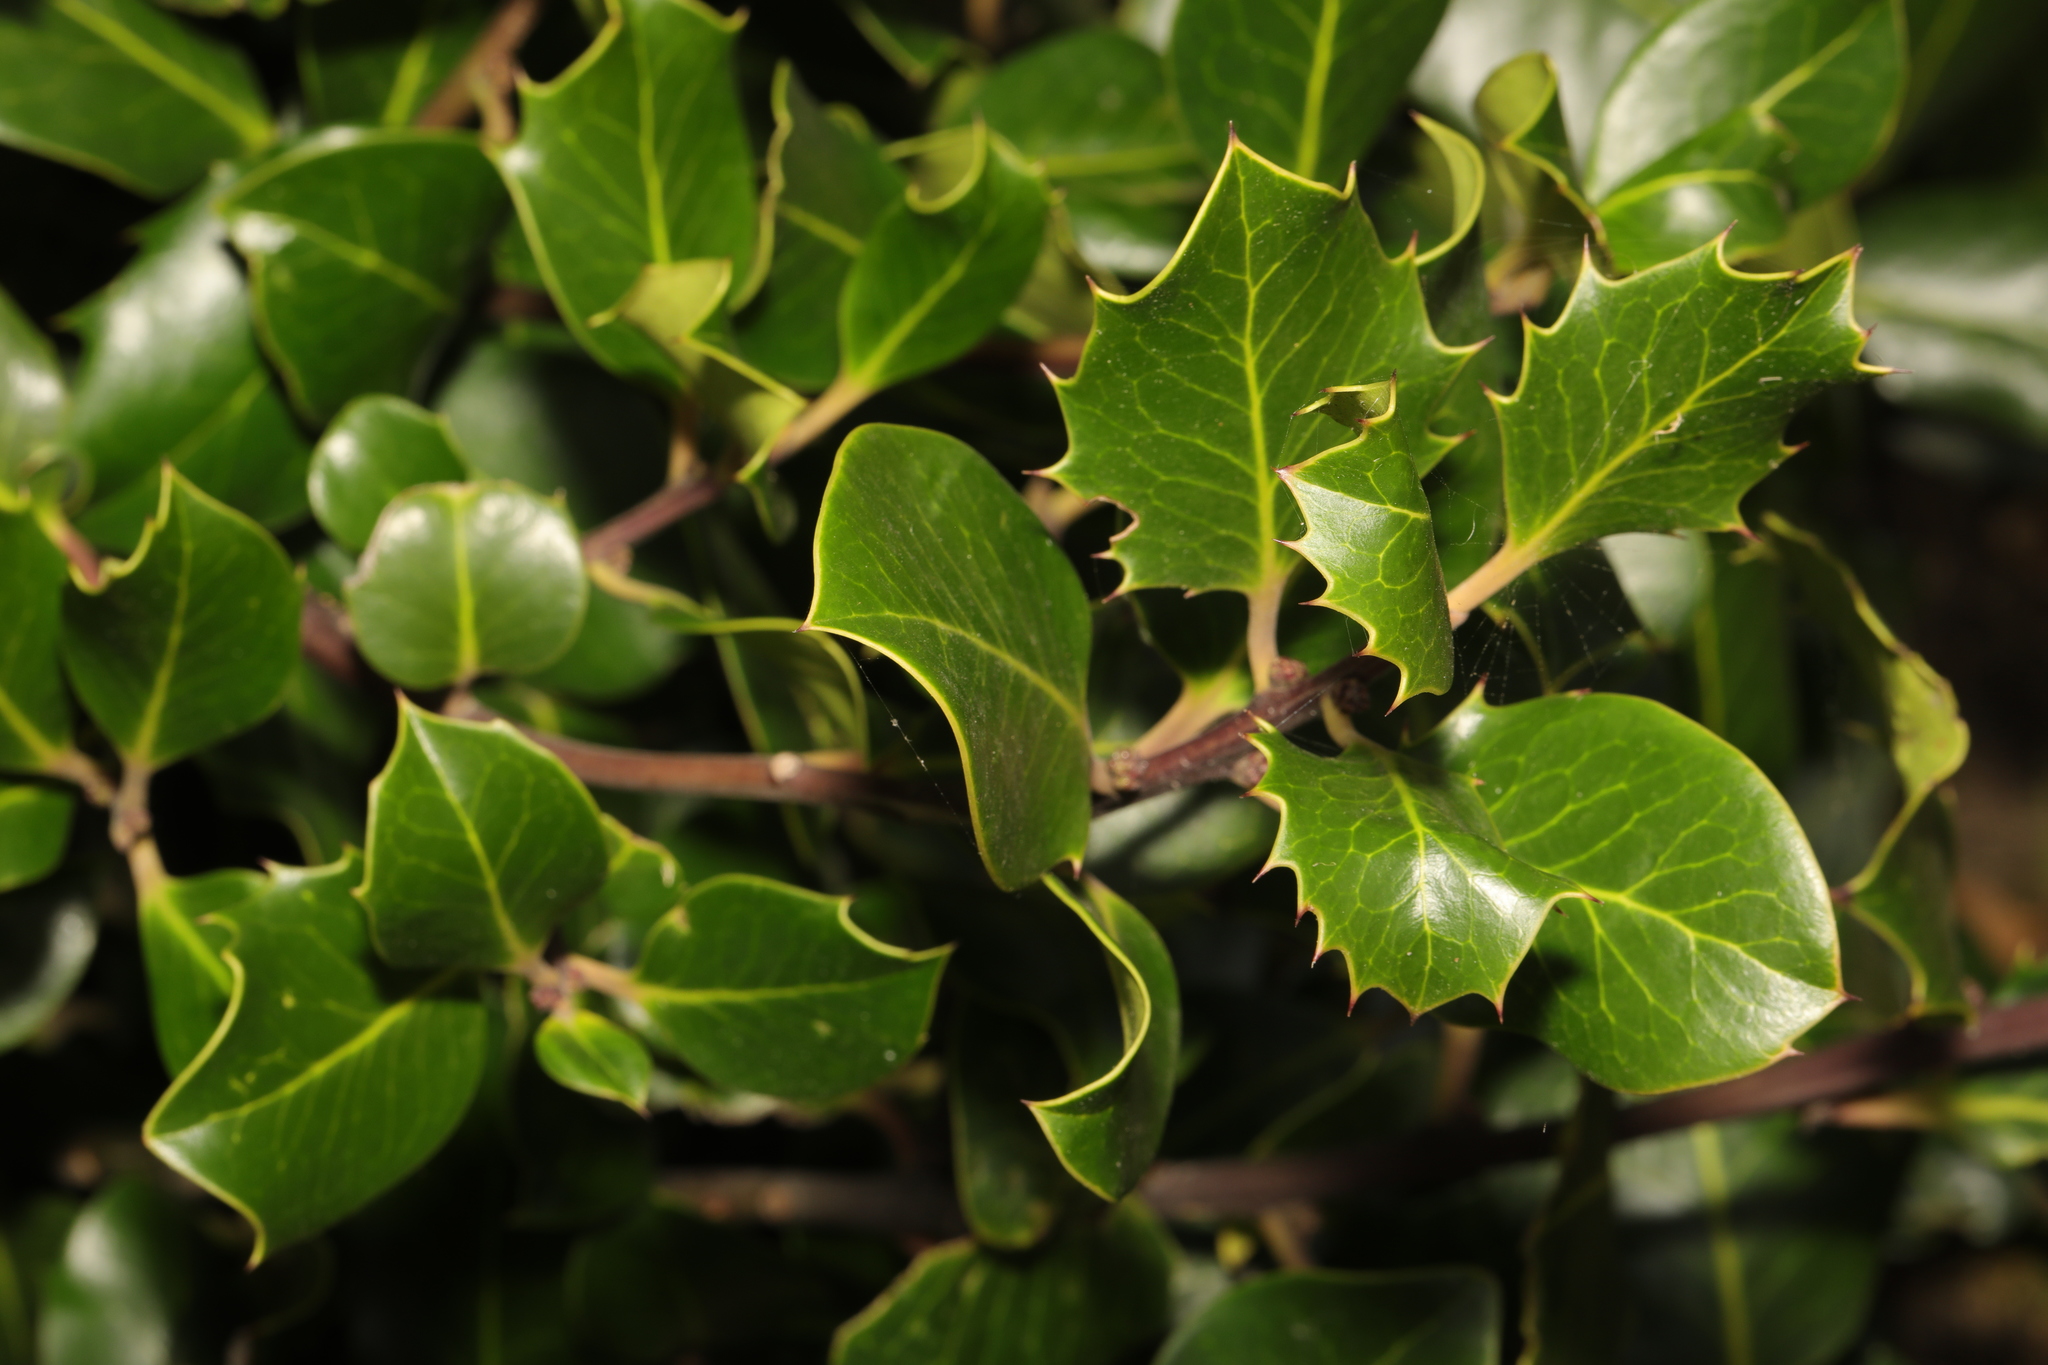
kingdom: Plantae
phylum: Tracheophyta
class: Magnoliopsida
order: Aquifoliales
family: Aquifoliaceae
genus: Ilex
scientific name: Ilex aquifolium
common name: English holly
